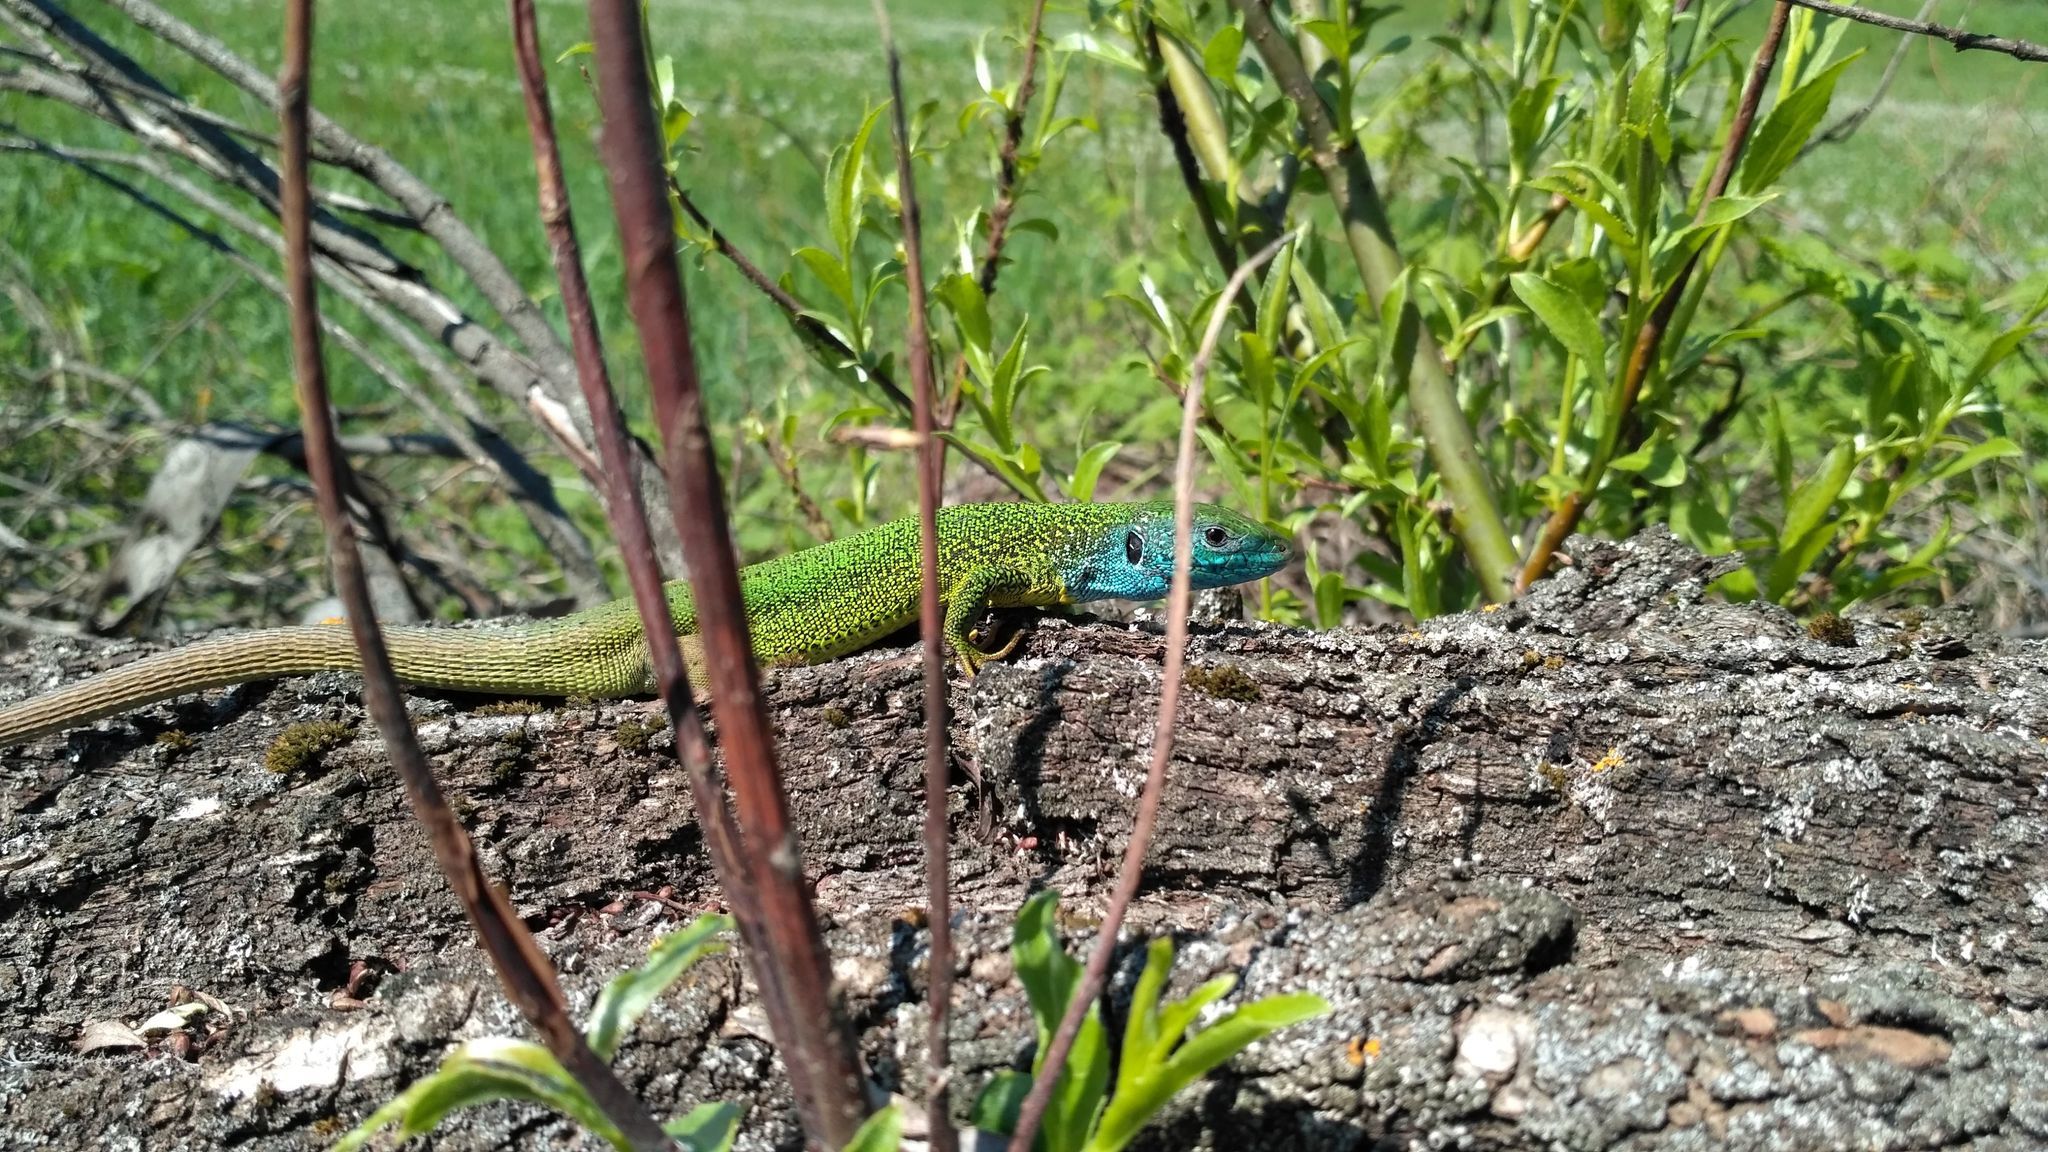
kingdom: Animalia
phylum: Chordata
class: Squamata
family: Lacertidae
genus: Lacerta
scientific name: Lacerta viridis
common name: European green lizard
